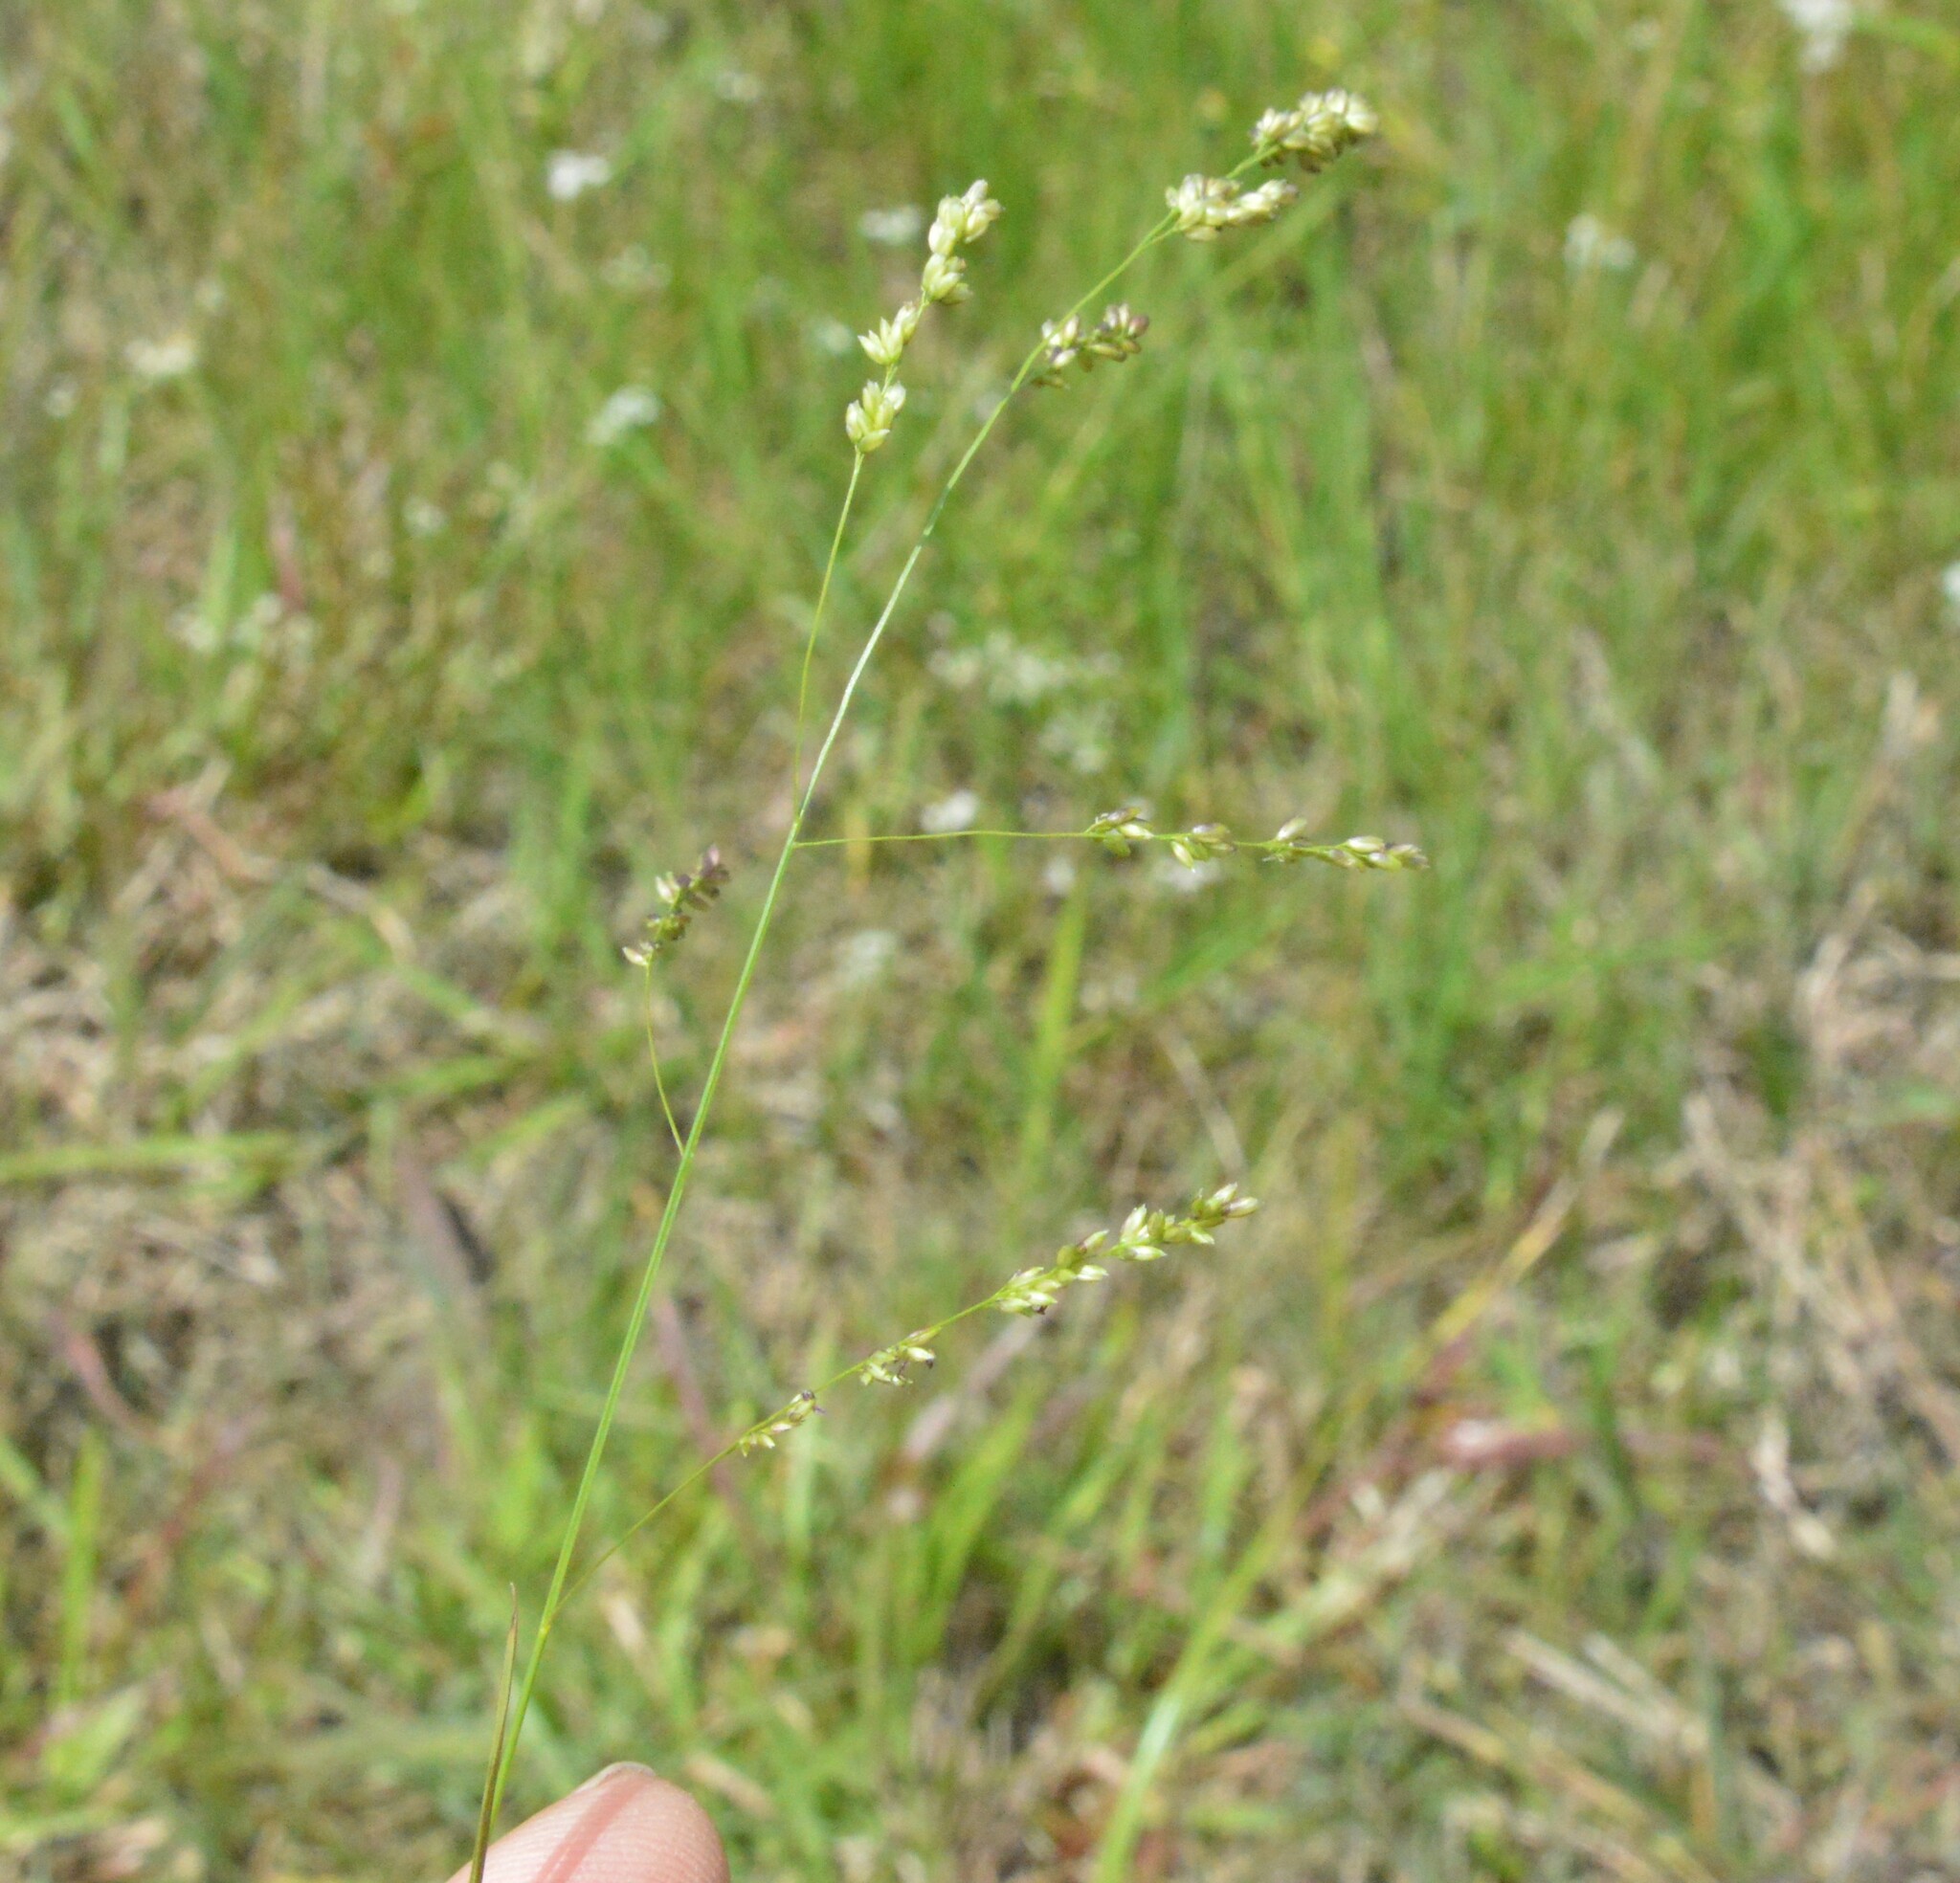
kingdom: Plantae
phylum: Tracheophyta
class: Liliopsida
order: Poales
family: Poaceae
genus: Steinchisma
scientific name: Steinchisma hians
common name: Gaping panic grass
